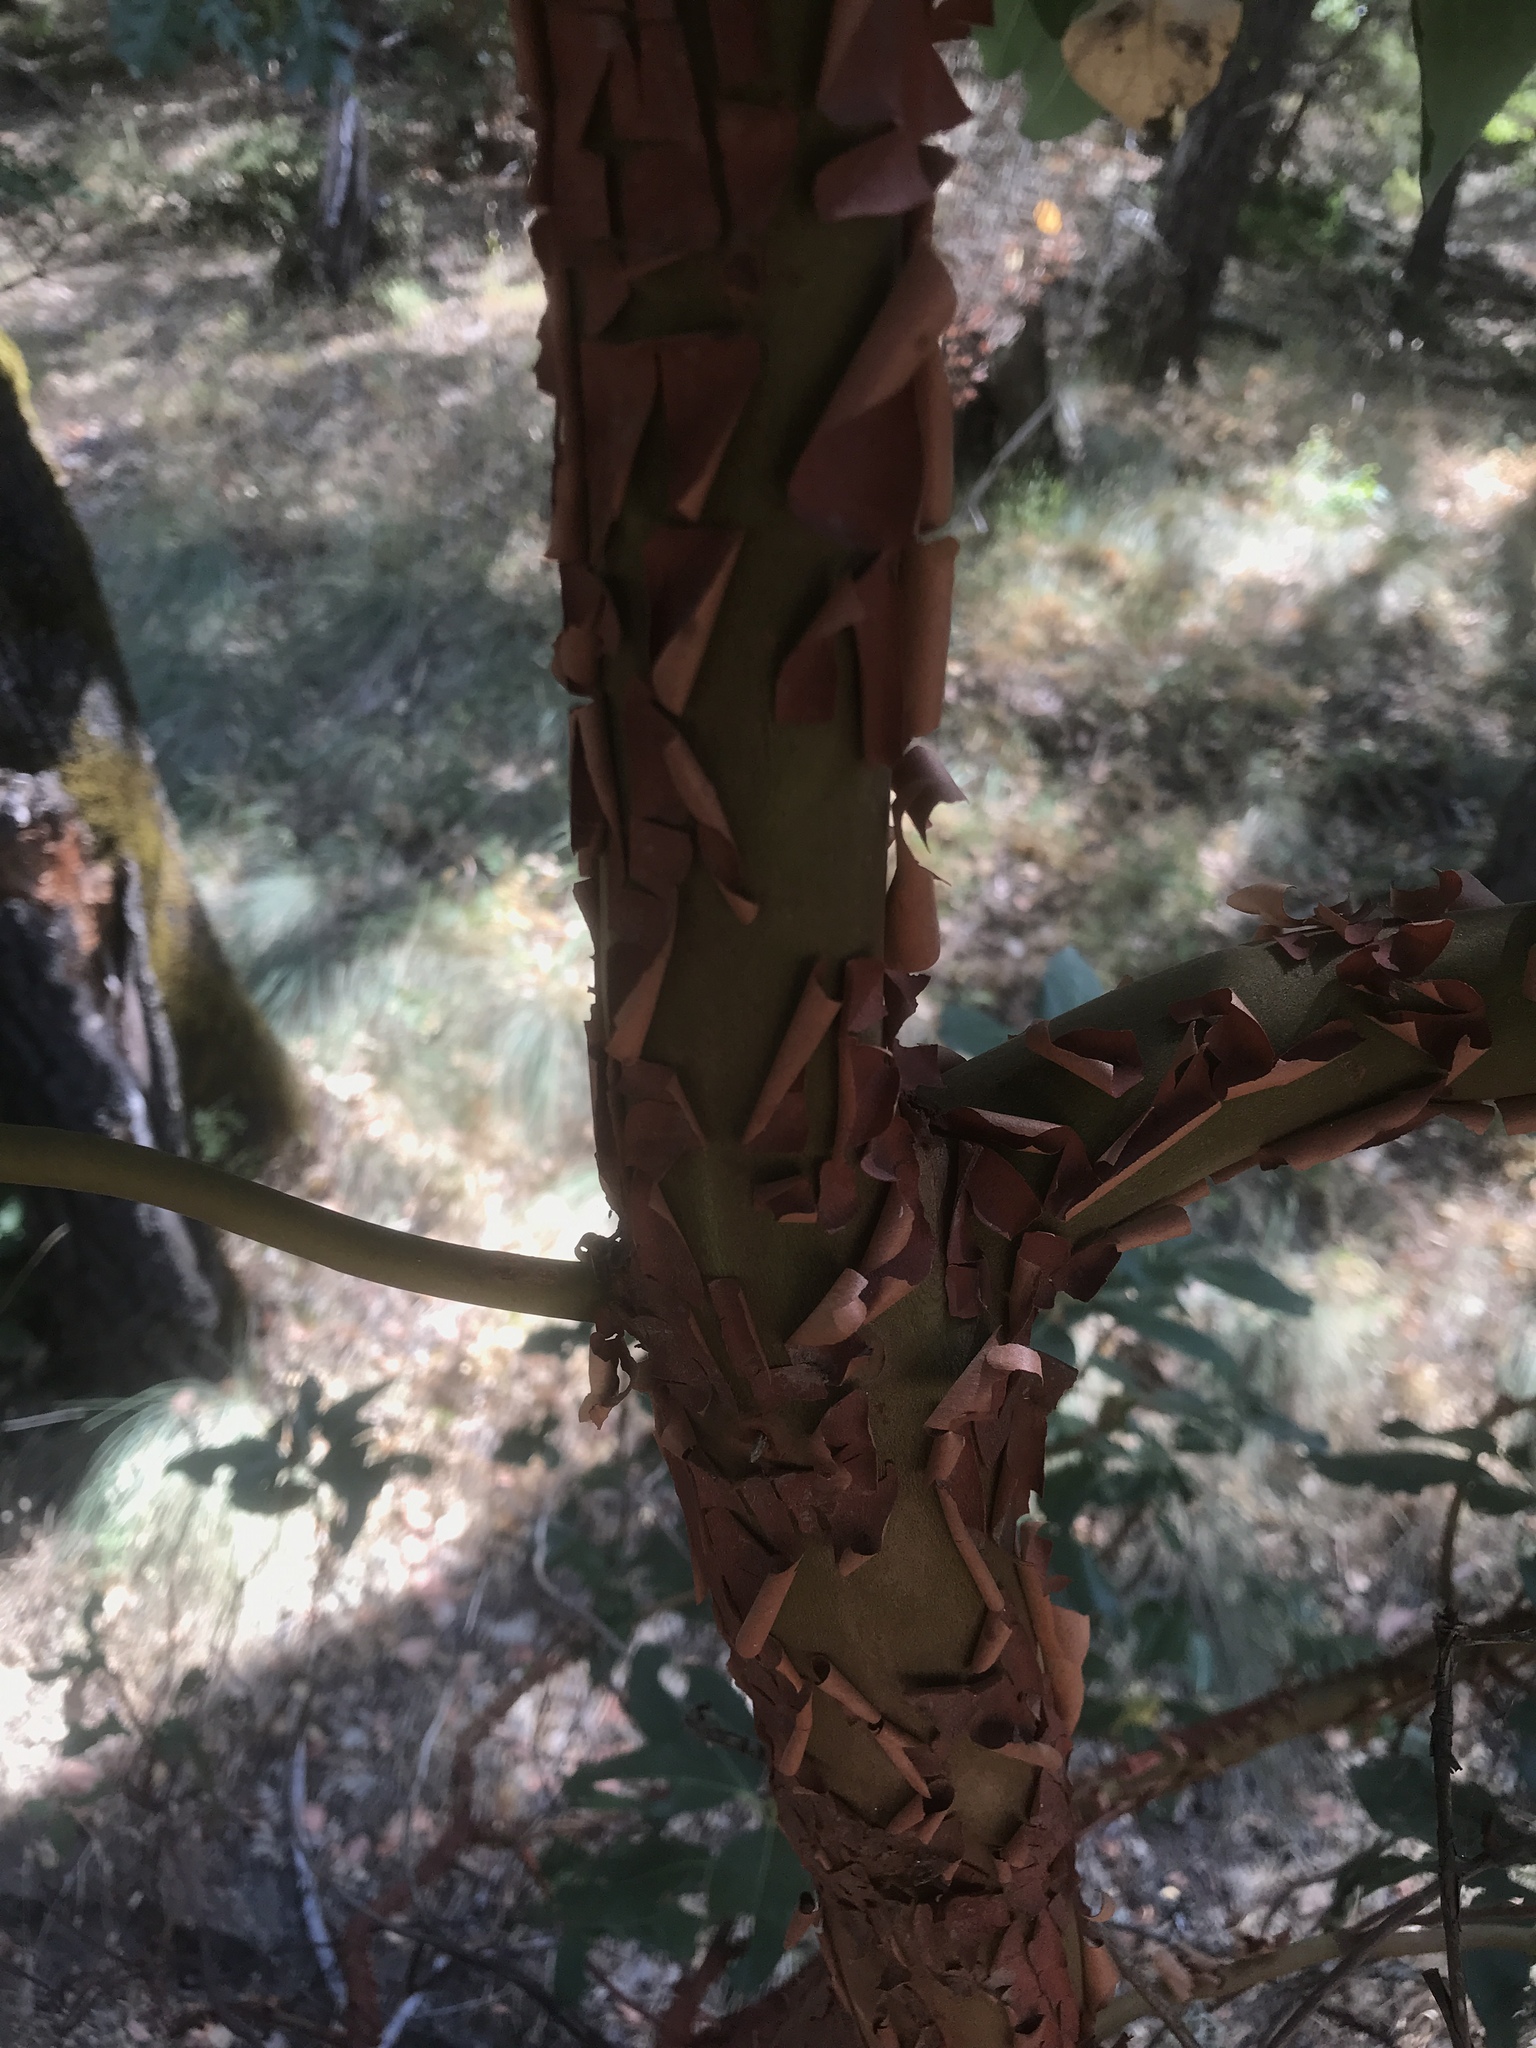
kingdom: Plantae
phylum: Tracheophyta
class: Magnoliopsida
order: Ericales
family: Ericaceae
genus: Arbutus
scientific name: Arbutus menziesii
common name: Pacific madrone
